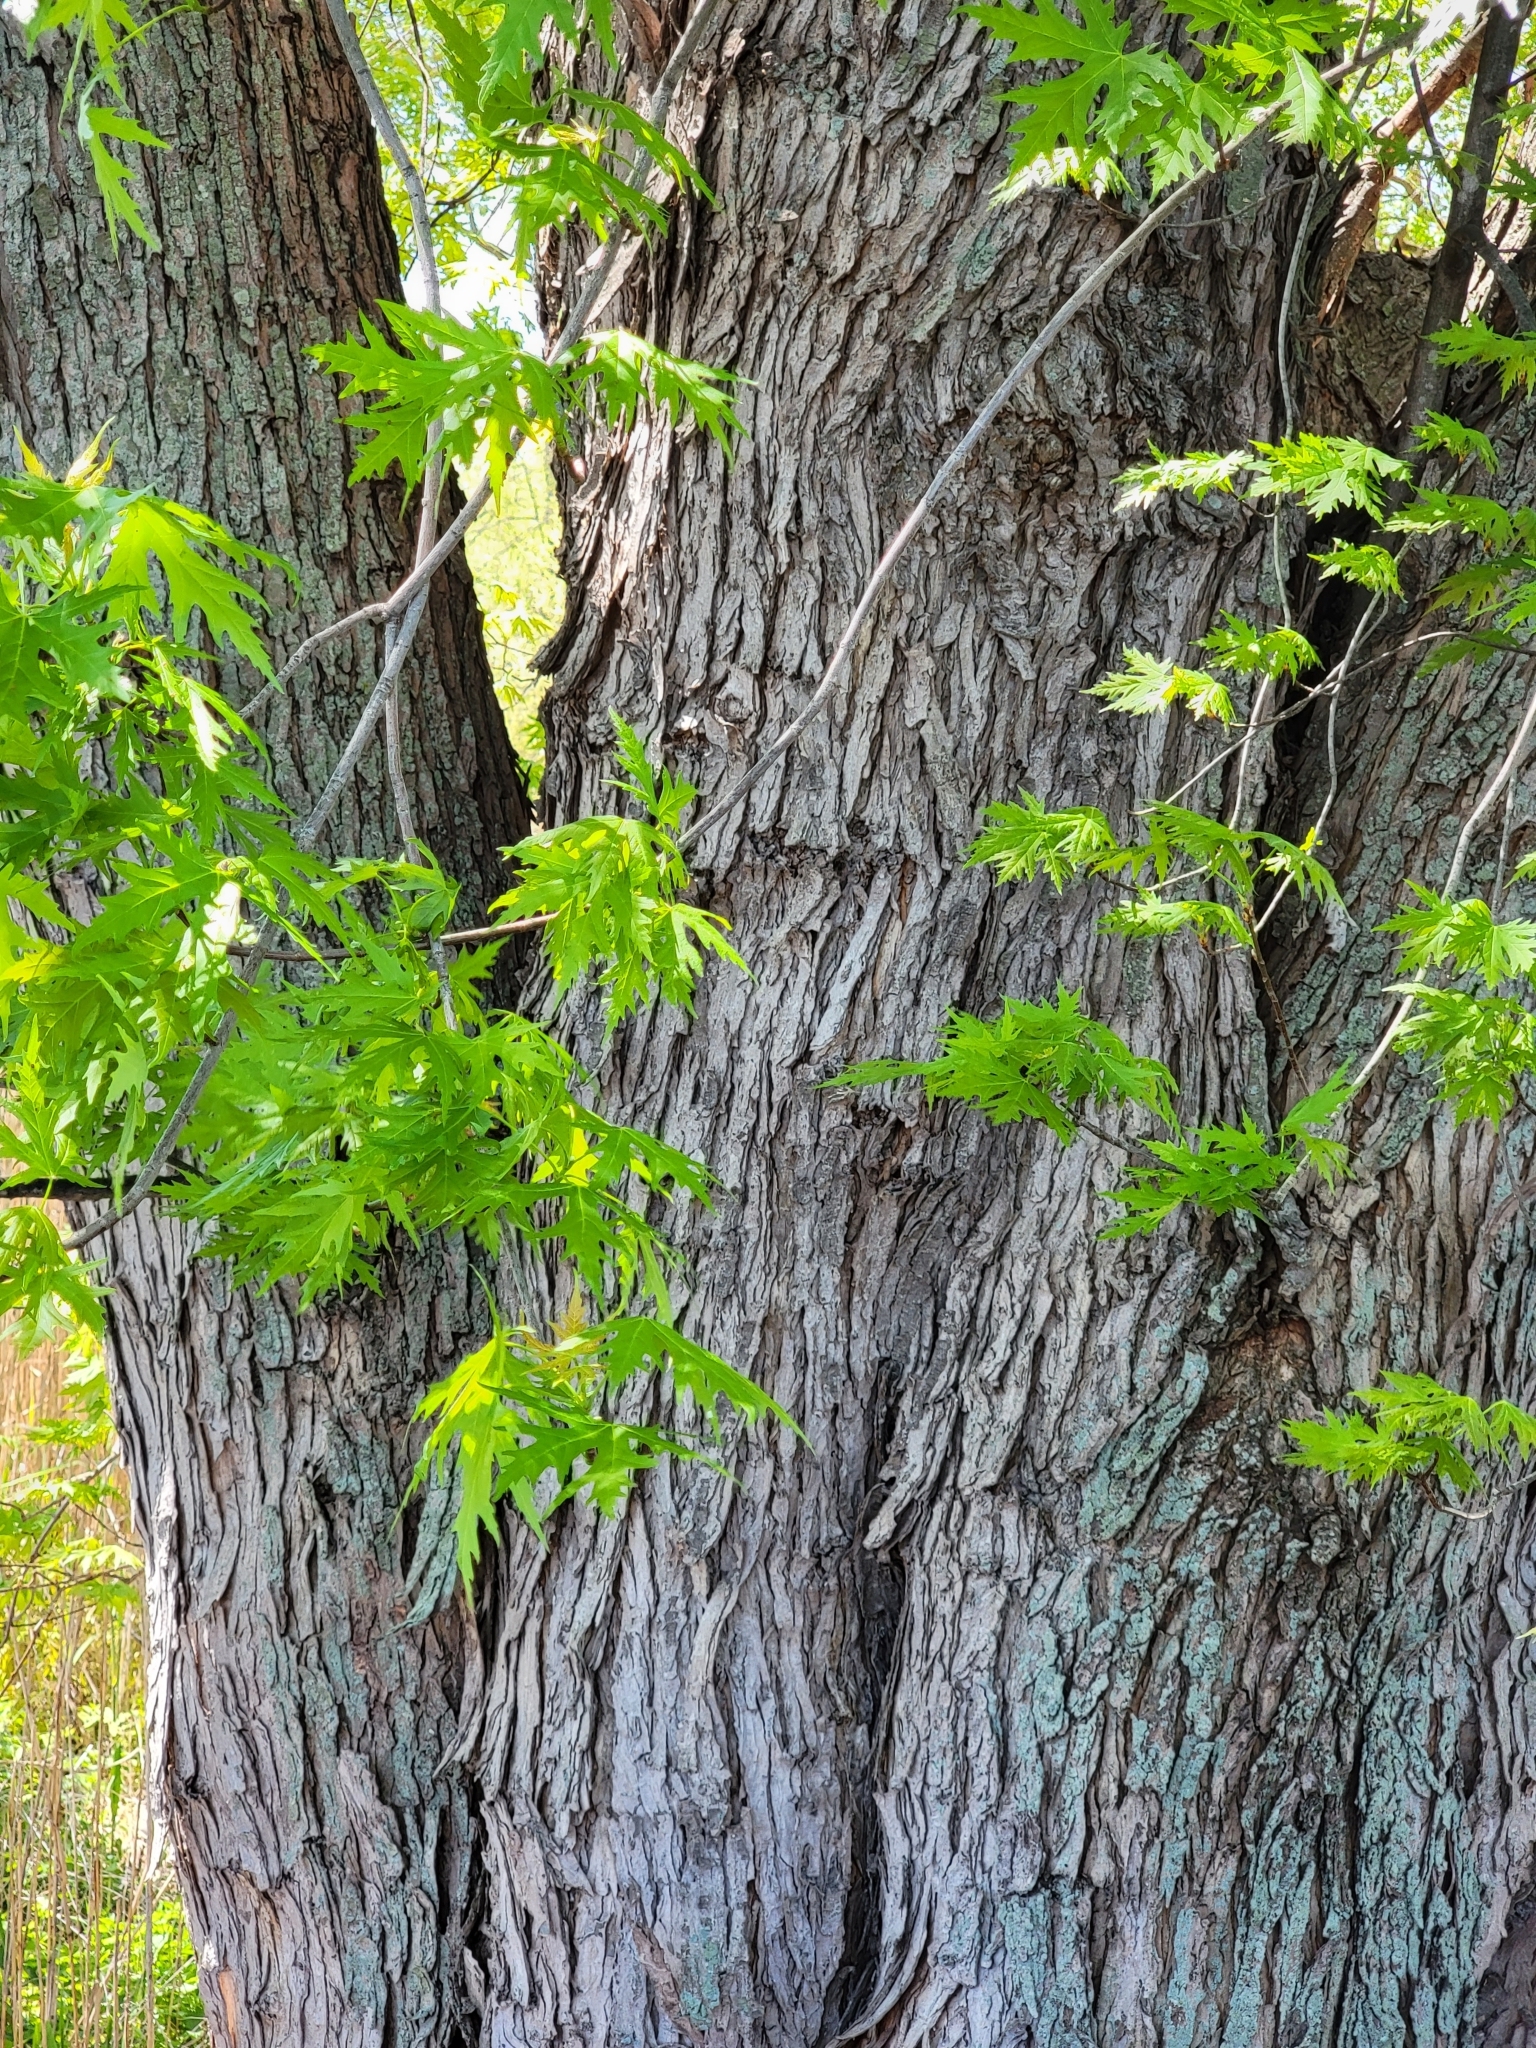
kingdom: Plantae
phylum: Tracheophyta
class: Magnoliopsida
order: Sapindales
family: Sapindaceae
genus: Acer
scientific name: Acer saccharinum
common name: Silver maple
